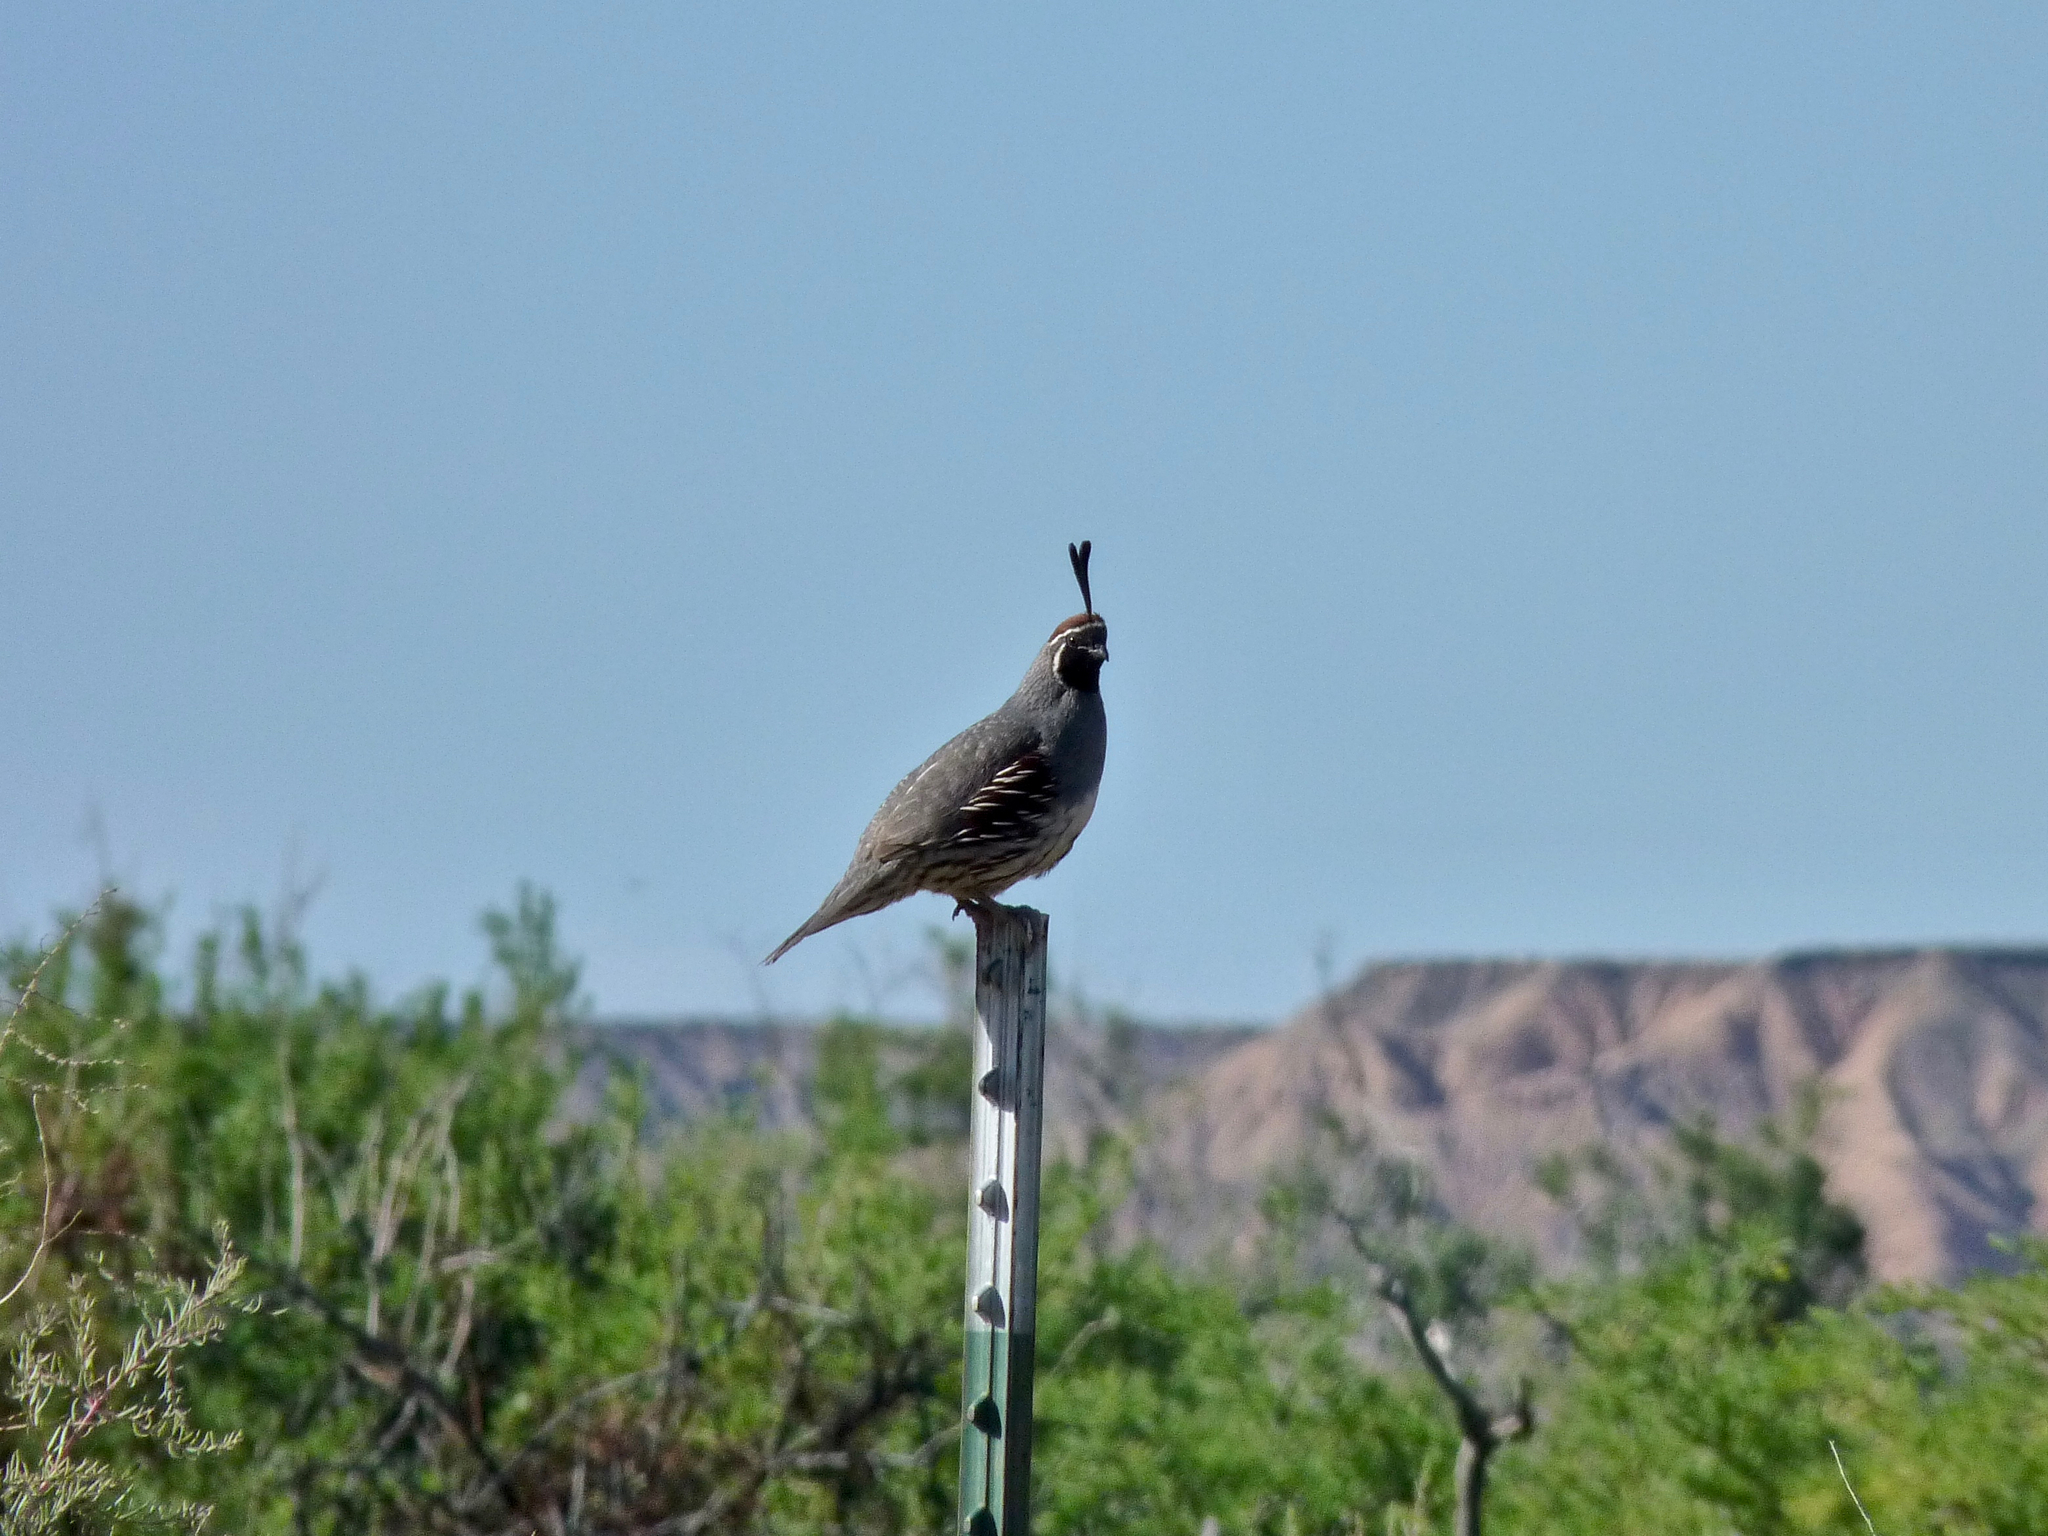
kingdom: Animalia
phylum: Chordata
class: Aves
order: Galliformes
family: Odontophoridae
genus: Callipepla
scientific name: Callipepla gambelii
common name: Gambel's quail
